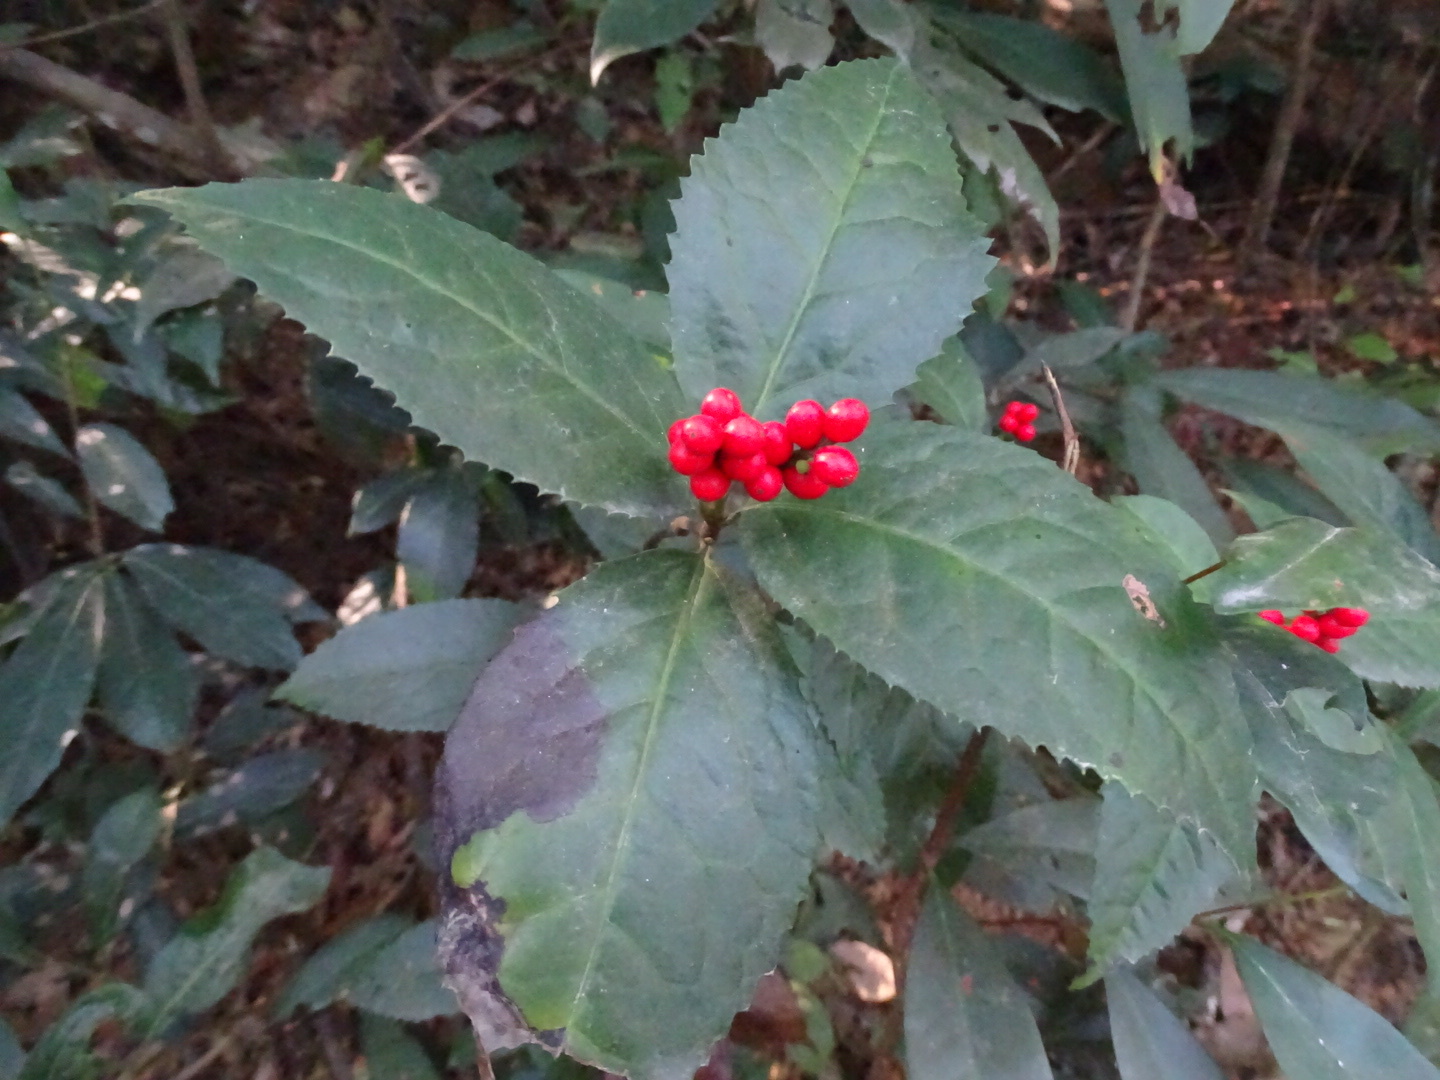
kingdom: Plantae
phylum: Tracheophyta
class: Magnoliopsida
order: Chloranthales
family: Chloranthaceae
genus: Sarcandra
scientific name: Sarcandra glabra
